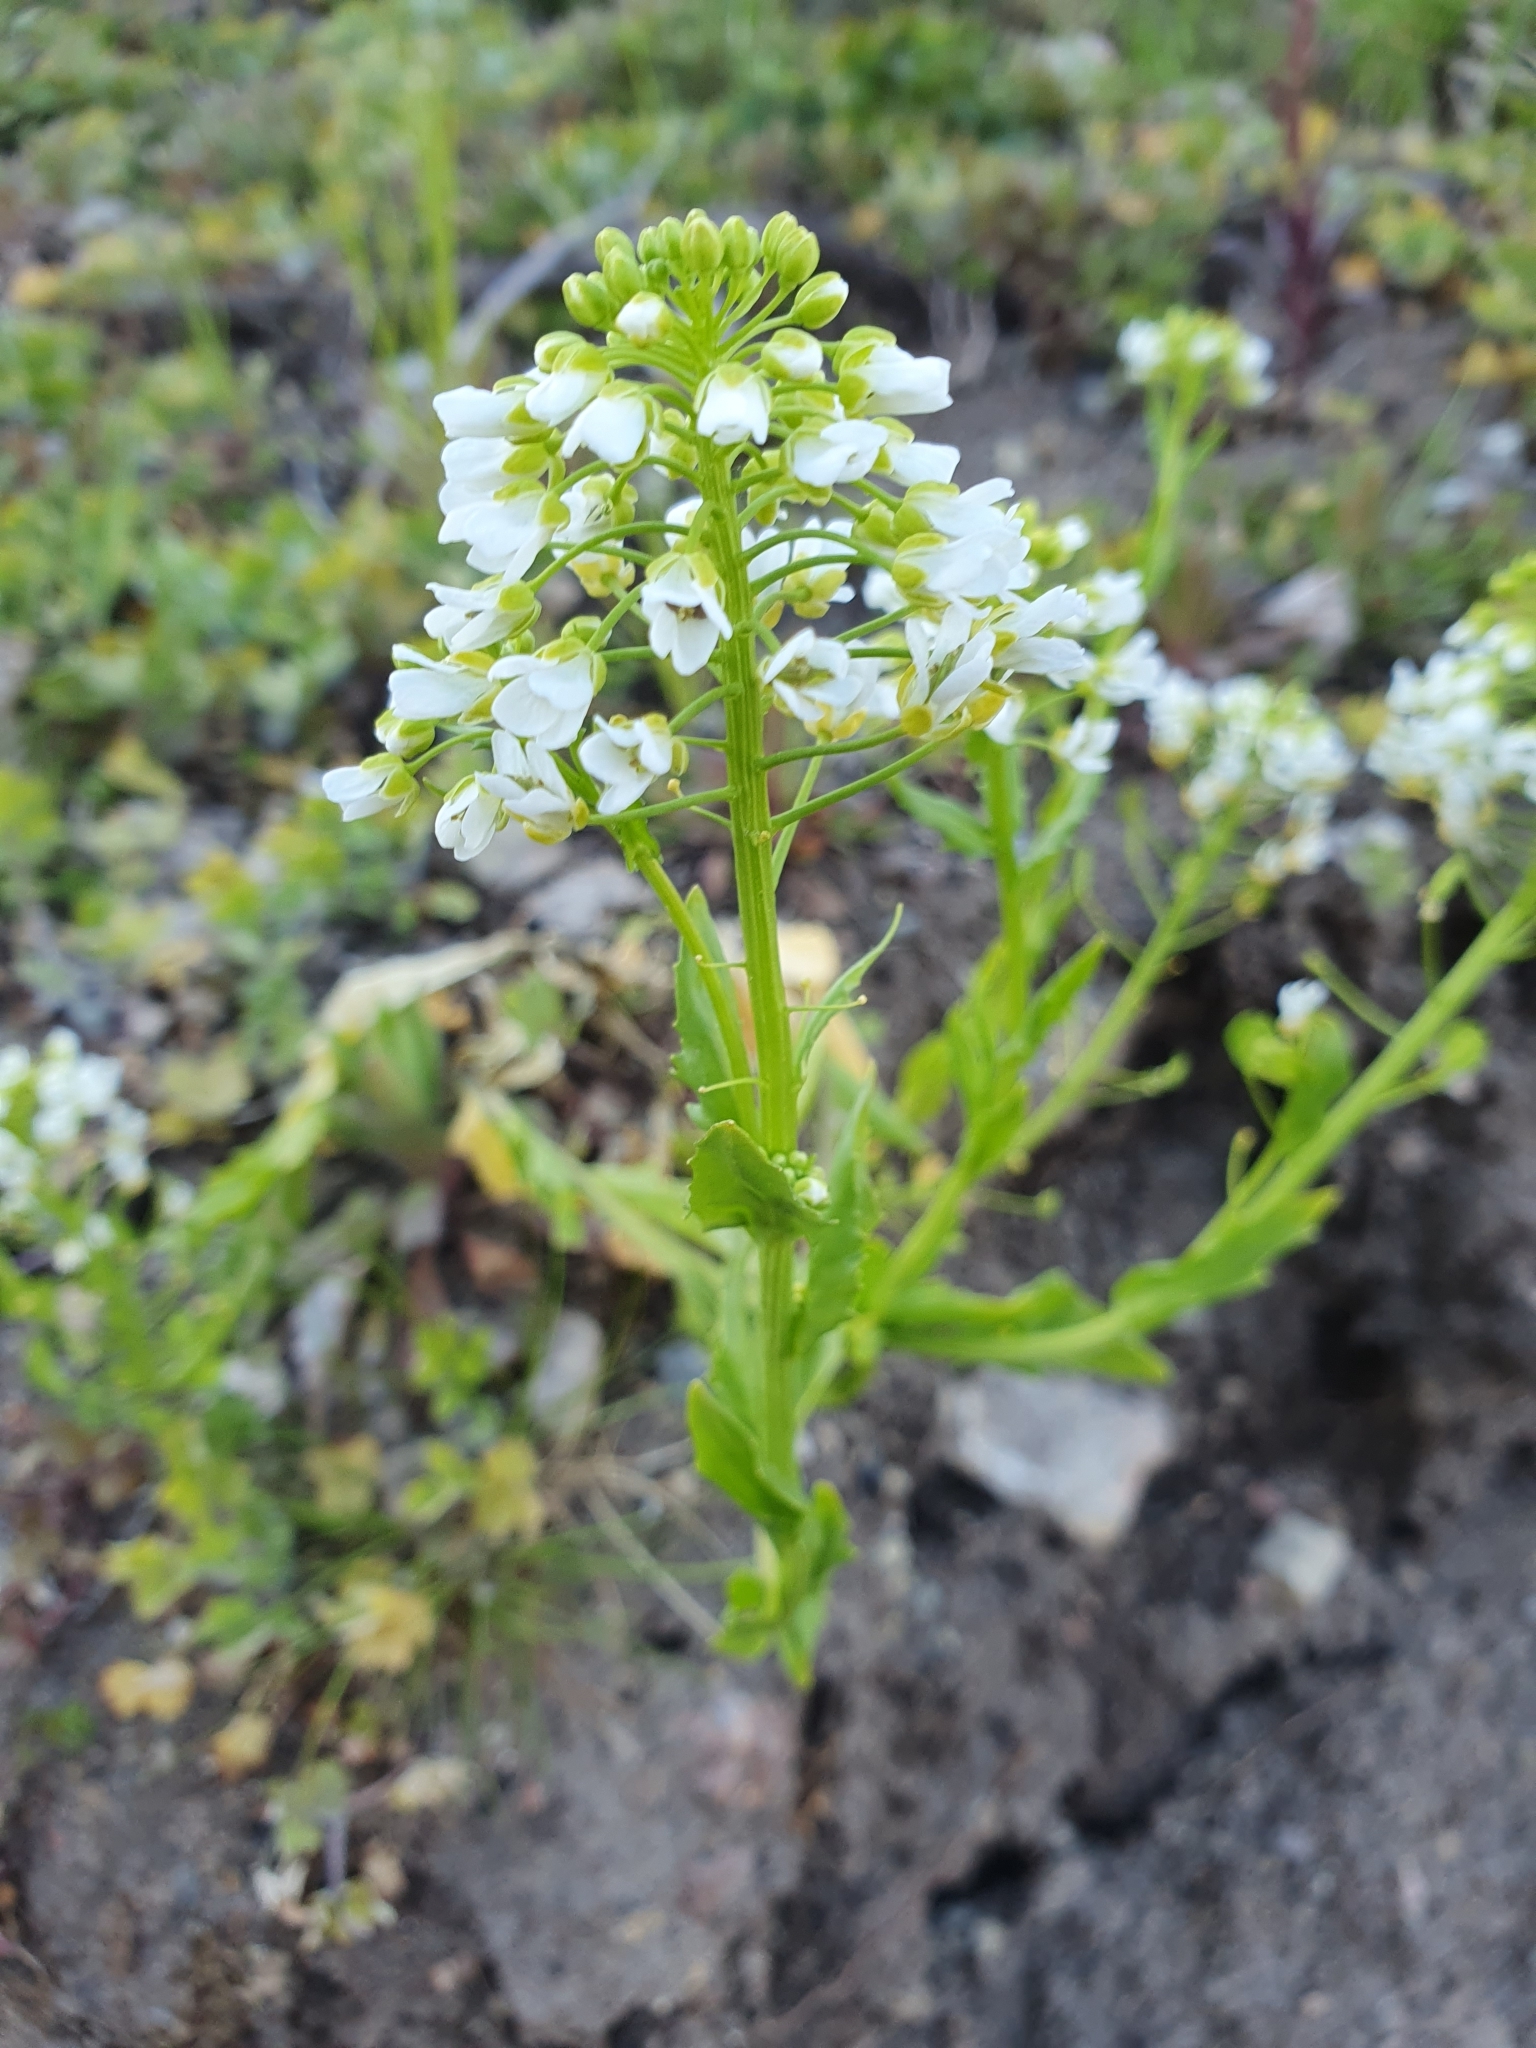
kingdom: Plantae
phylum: Tracheophyta
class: Magnoliopsida
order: Brassicales
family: Brassicaceae
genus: Thlaspi
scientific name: Thlaspi arvense
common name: Field pennycress
